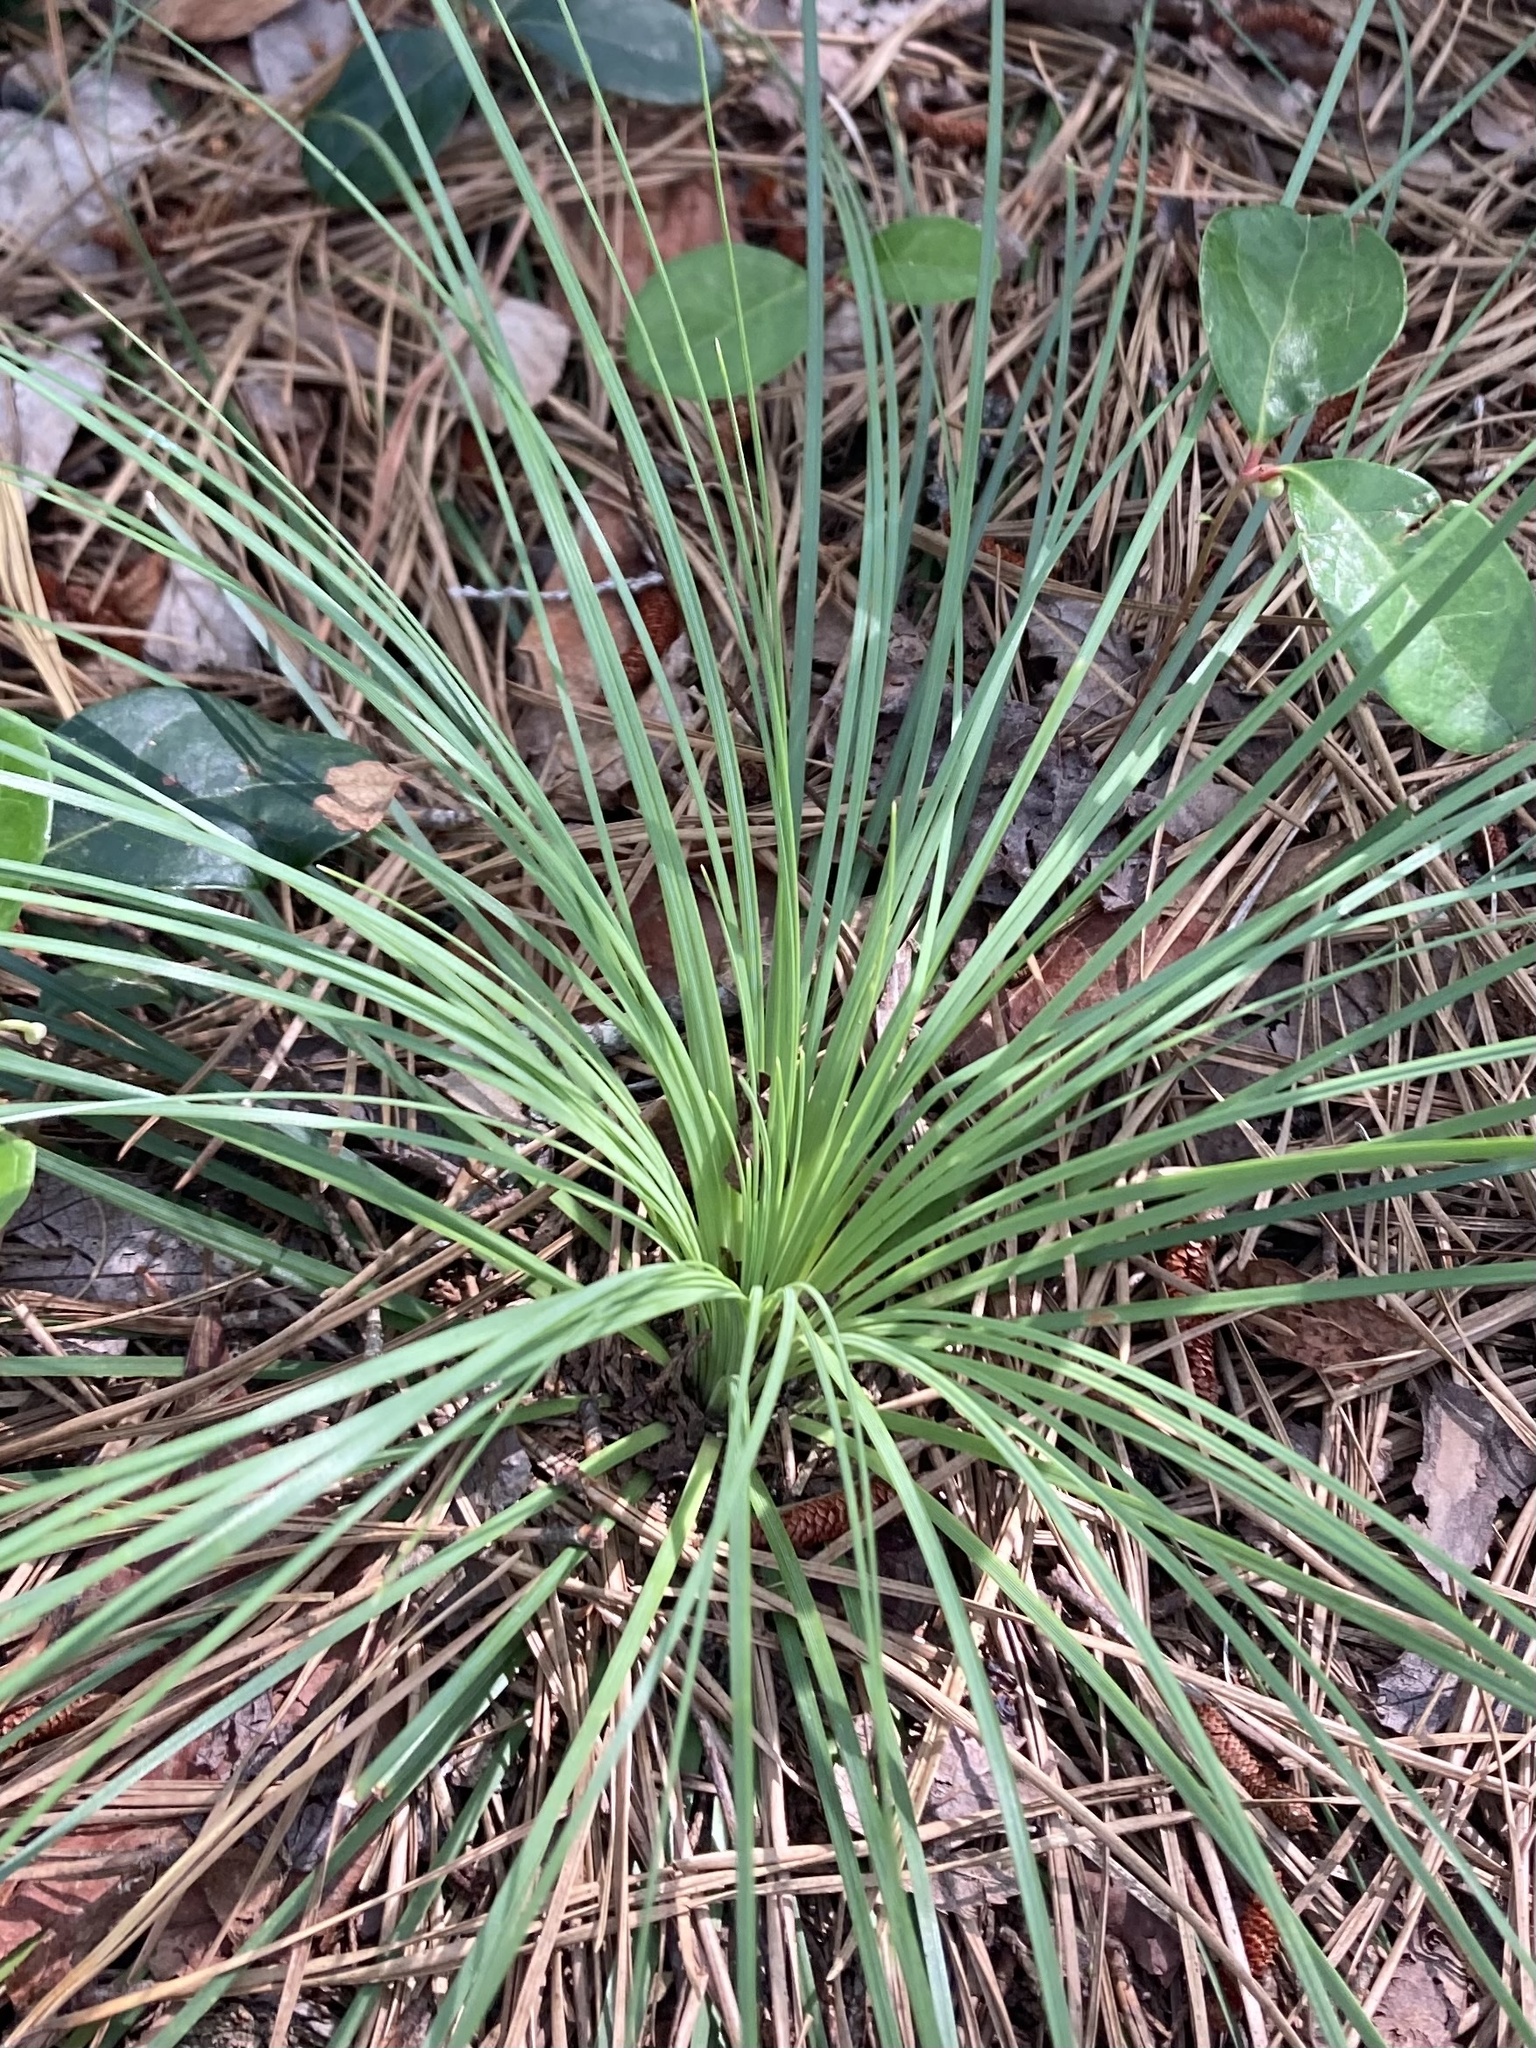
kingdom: Plantae
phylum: Tracheophyta
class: Liliopsida
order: Liliales
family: Melanthiaceae
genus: Xerophyllum
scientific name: Xerophyllum asphodeloides
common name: Mountain-asphodel
